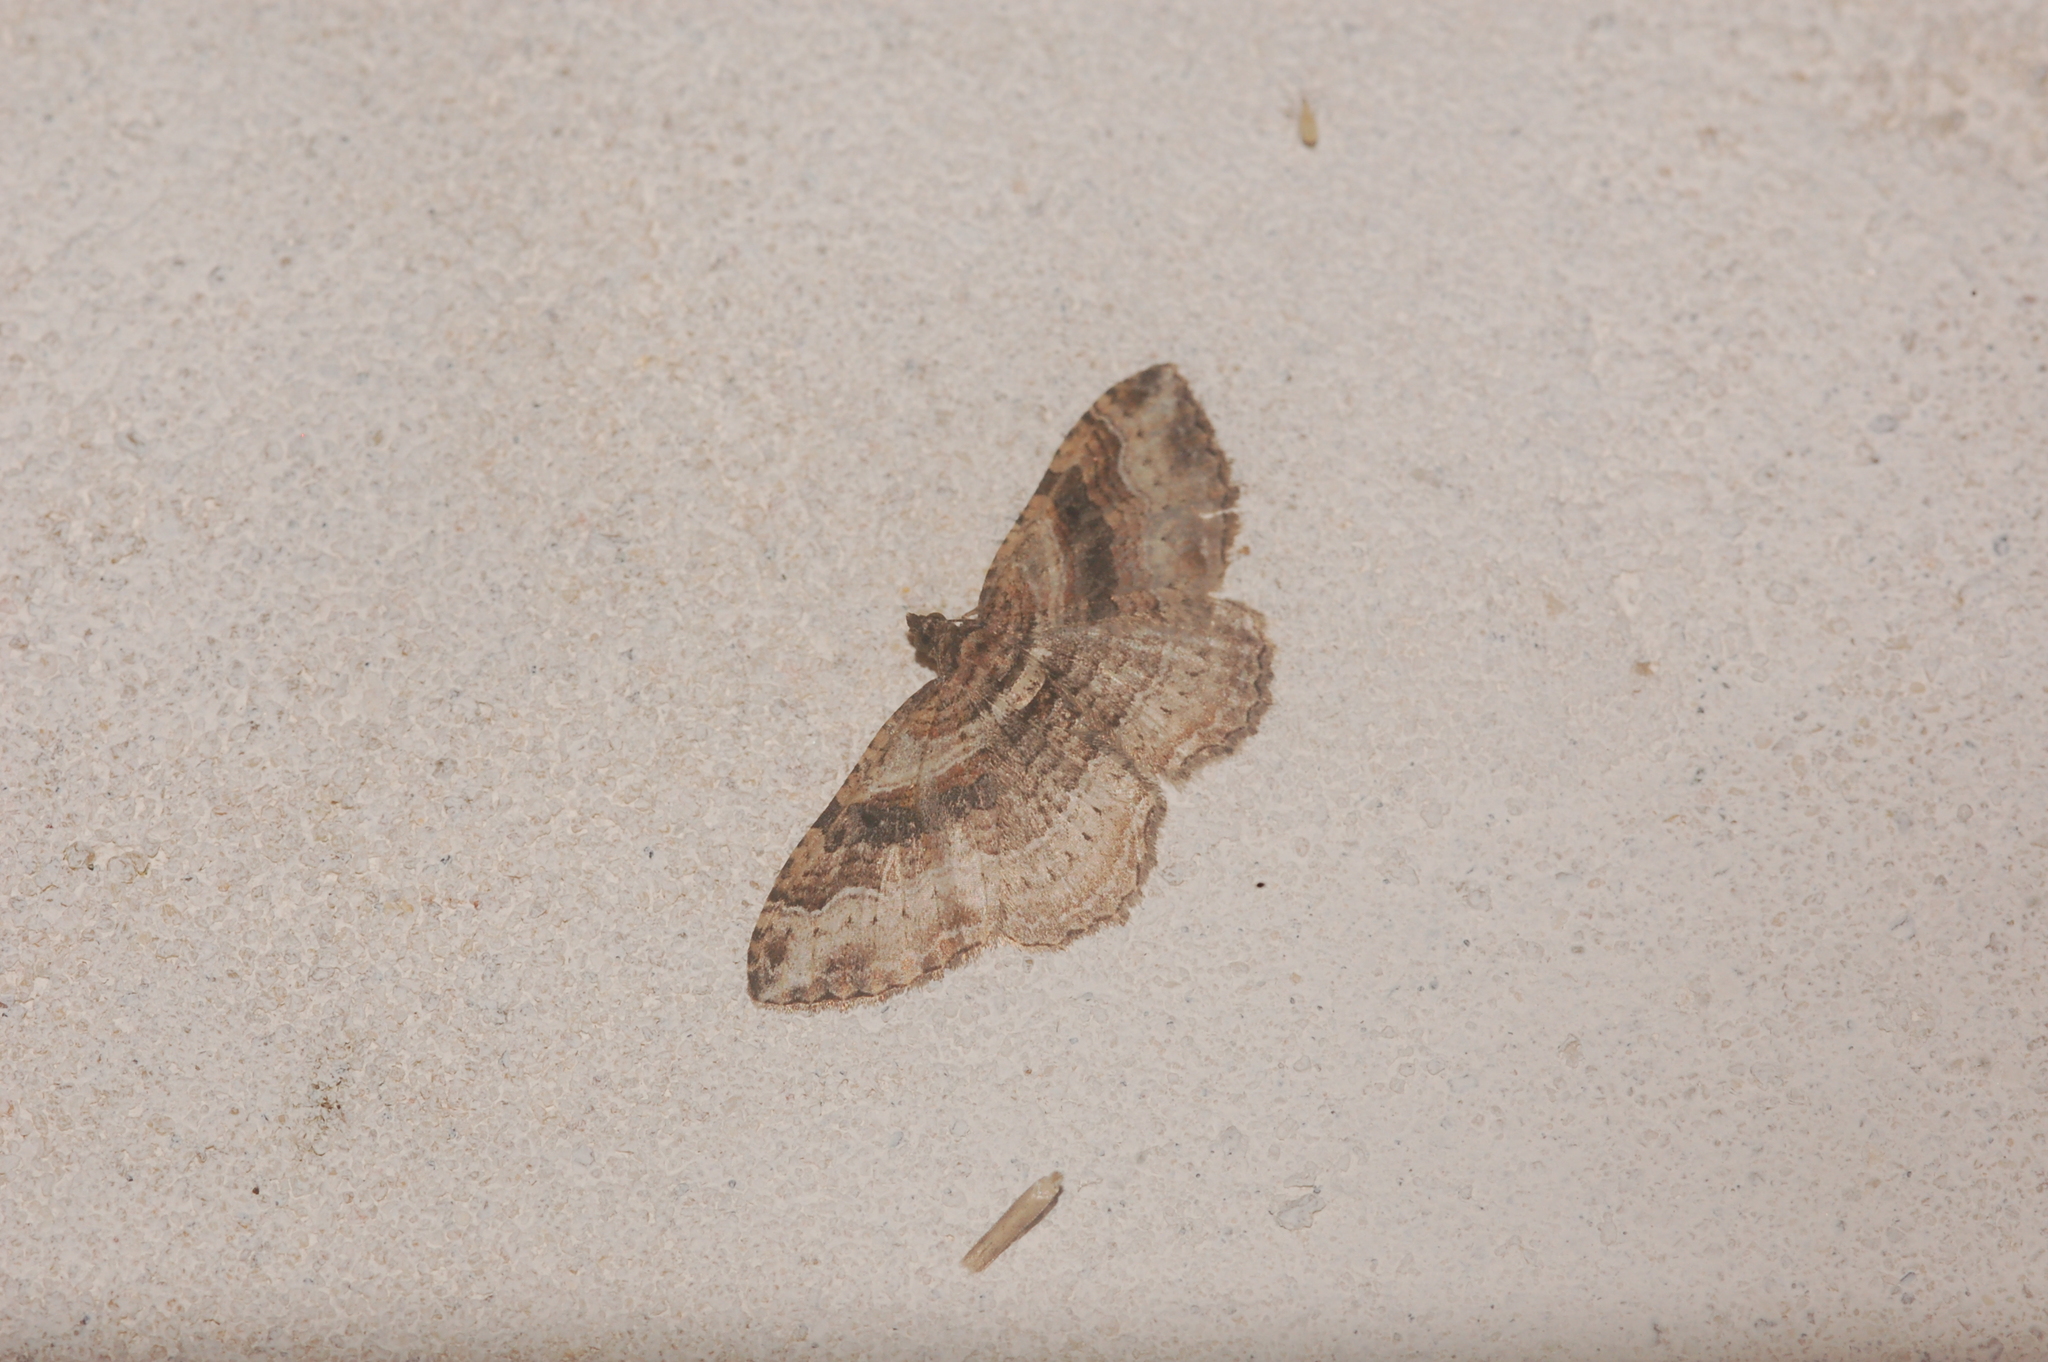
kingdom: Animalia
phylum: Arthropoda
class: Insecta
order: Lepidoptera
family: Geometridae
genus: Costaconvexa
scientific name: Costaconvexa centrostrigaria
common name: Bent-line carpet
